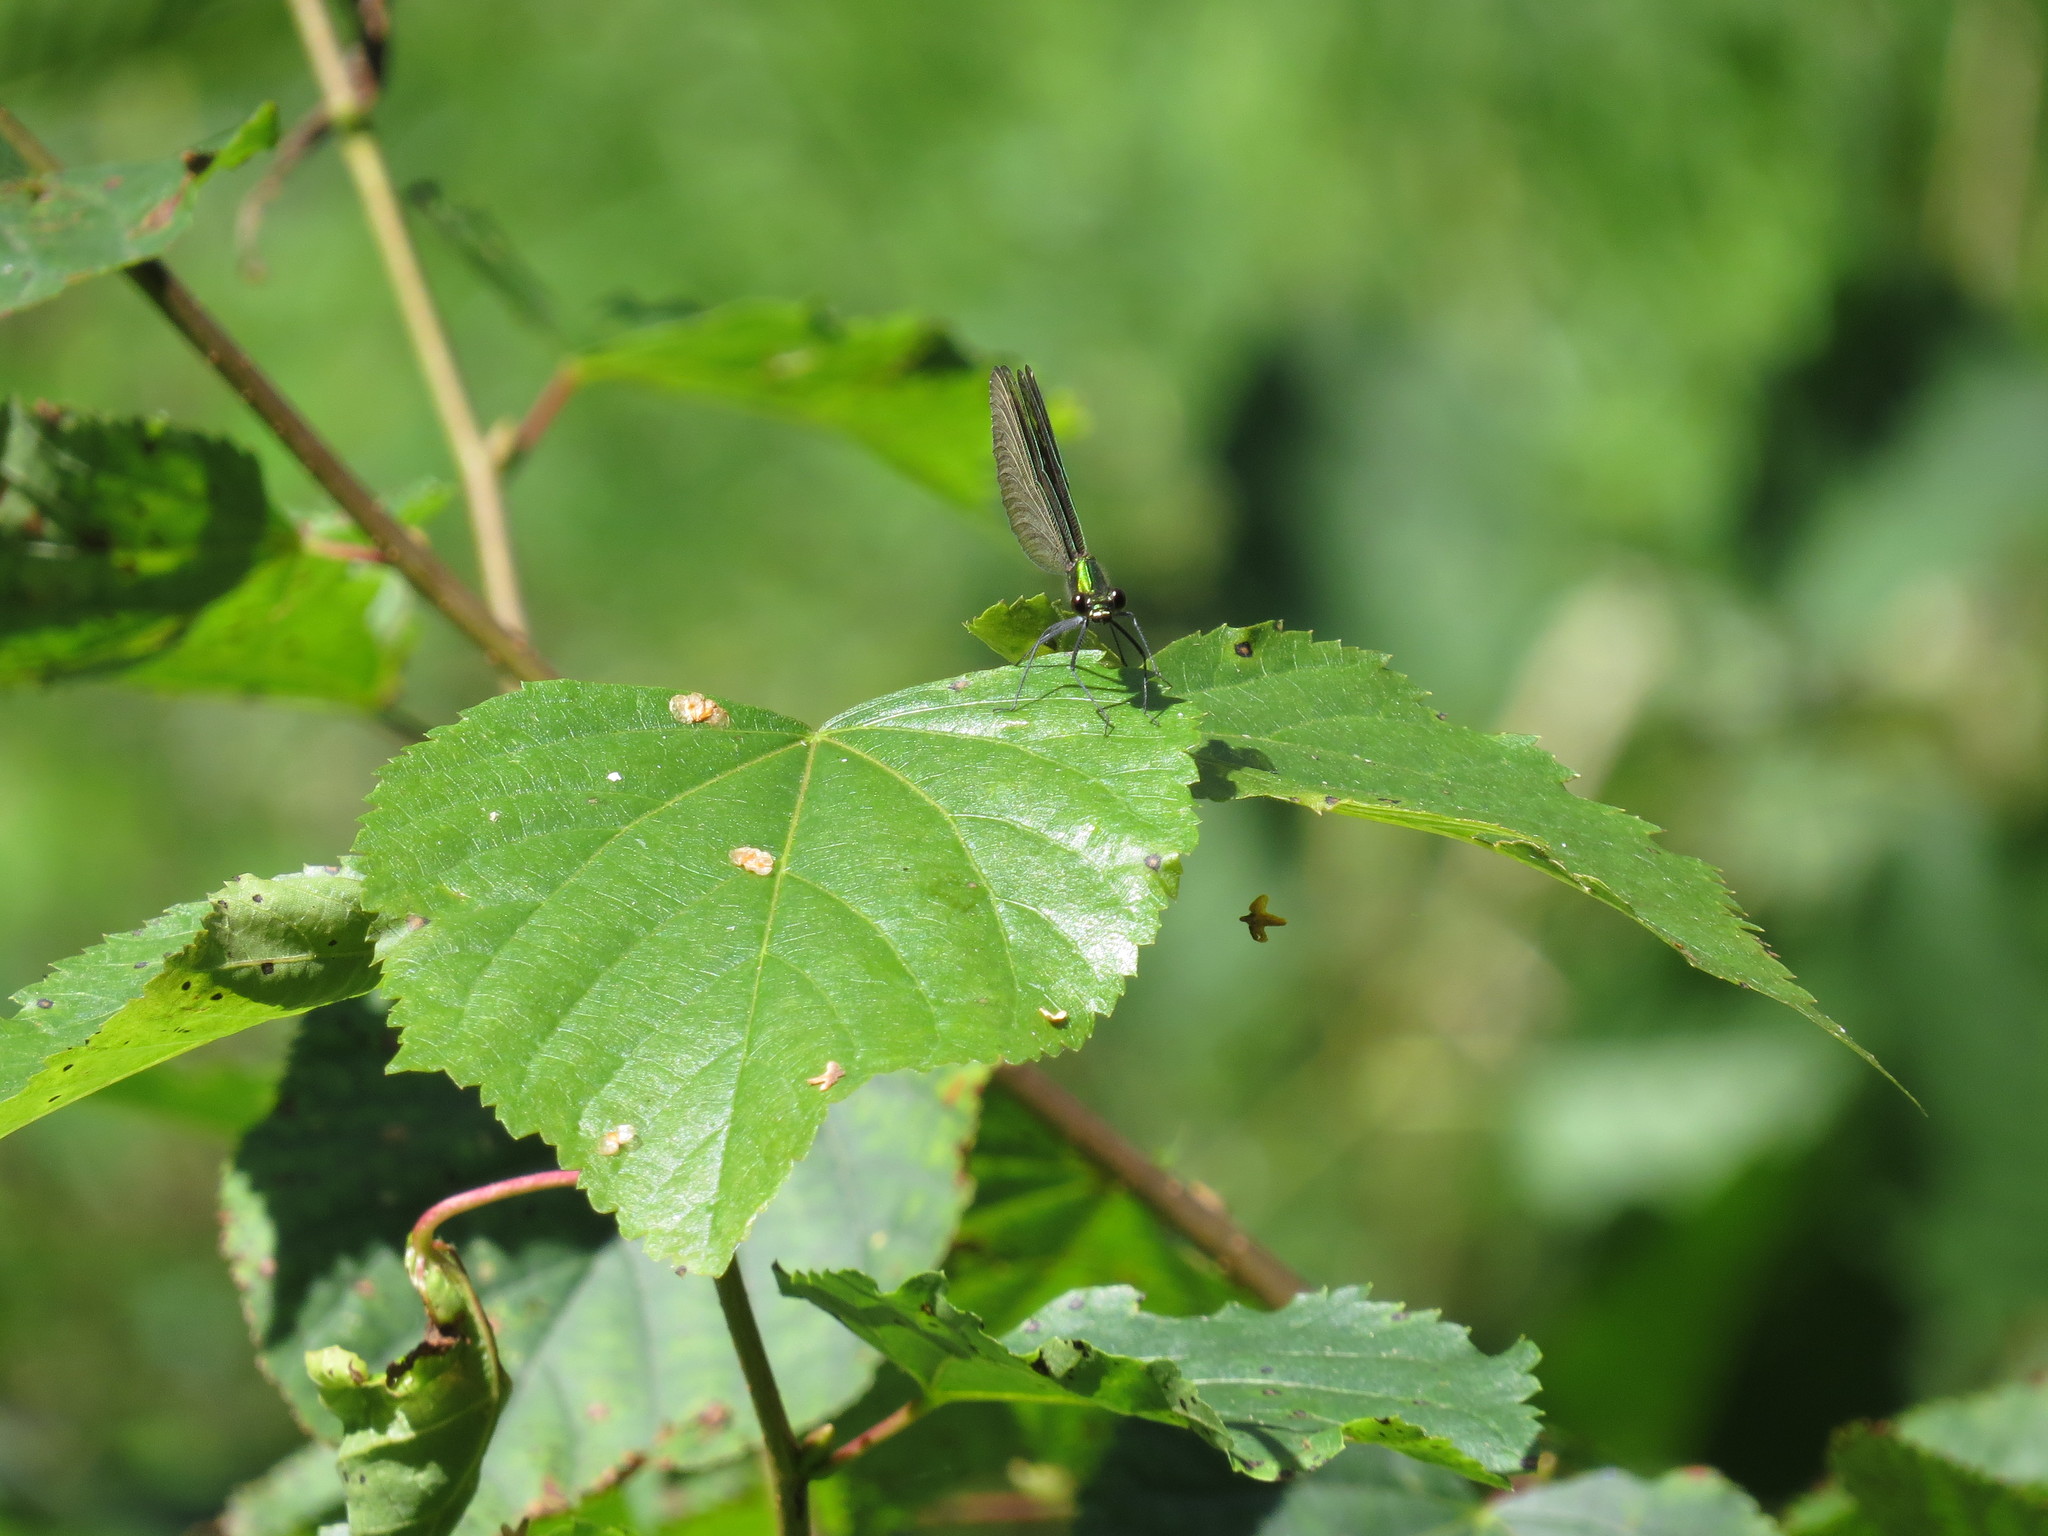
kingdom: Animalia
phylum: Arthropoda
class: Insecta
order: Odonata
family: Calopterygidae
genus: Calopteryx
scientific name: Calopteryx virgo
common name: Beautiful demoiselle
